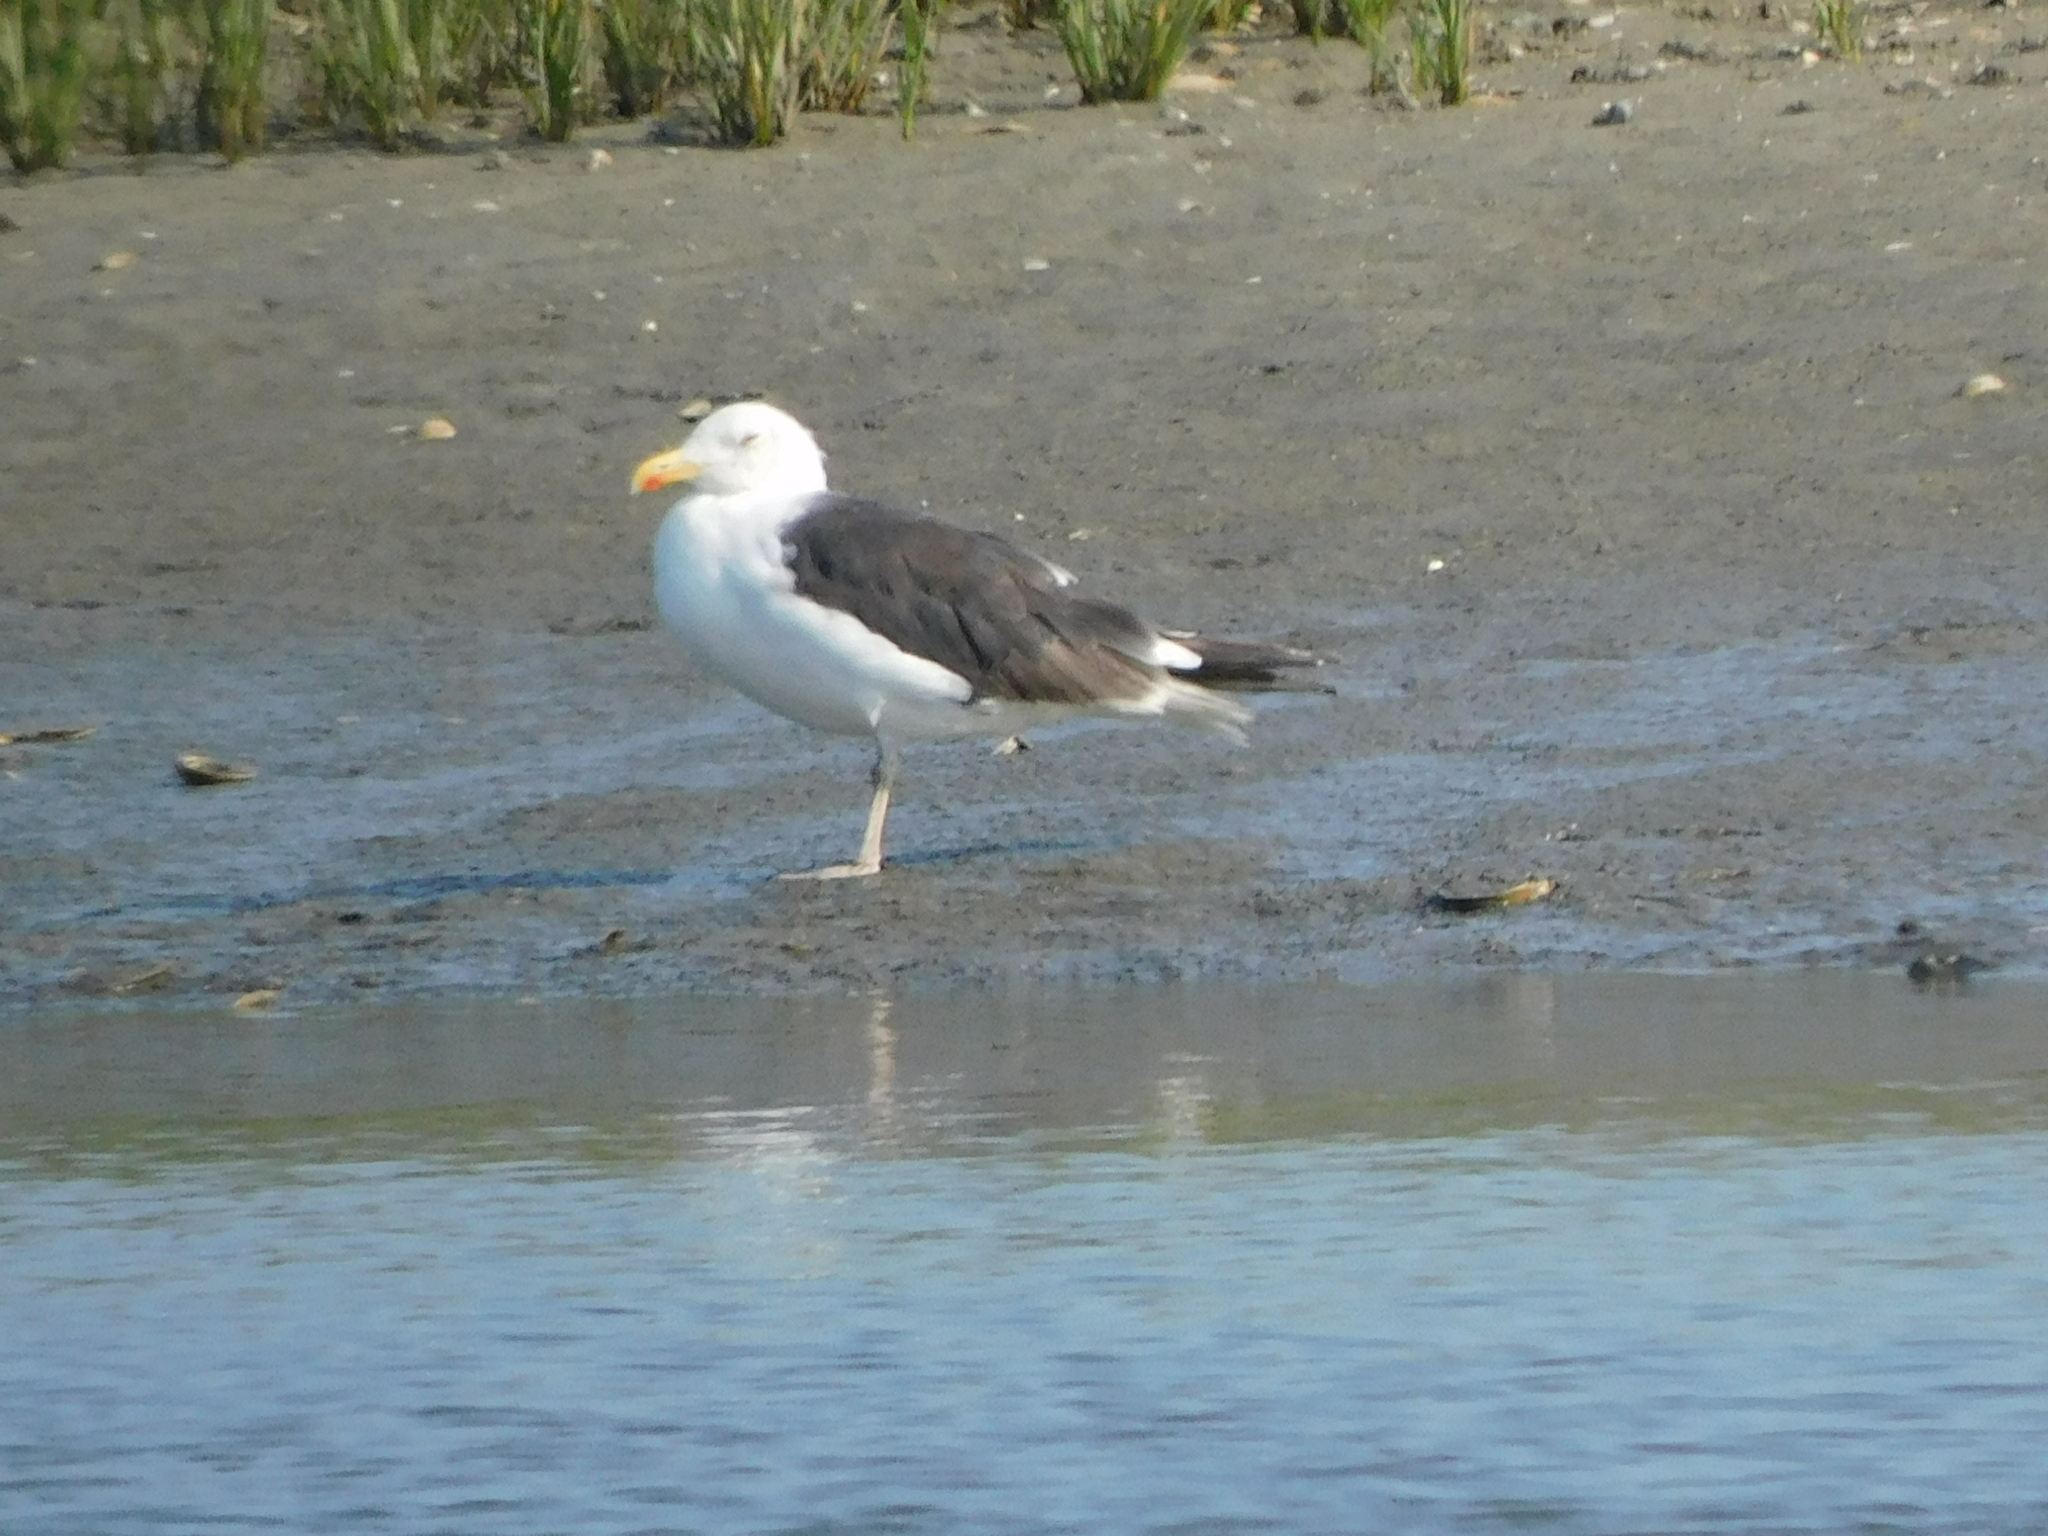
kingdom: Animalia
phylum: Chordata
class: Aves
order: Charadriiformes
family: Laridae
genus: Larus
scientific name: Larus marinus
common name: Great black-backed gull
